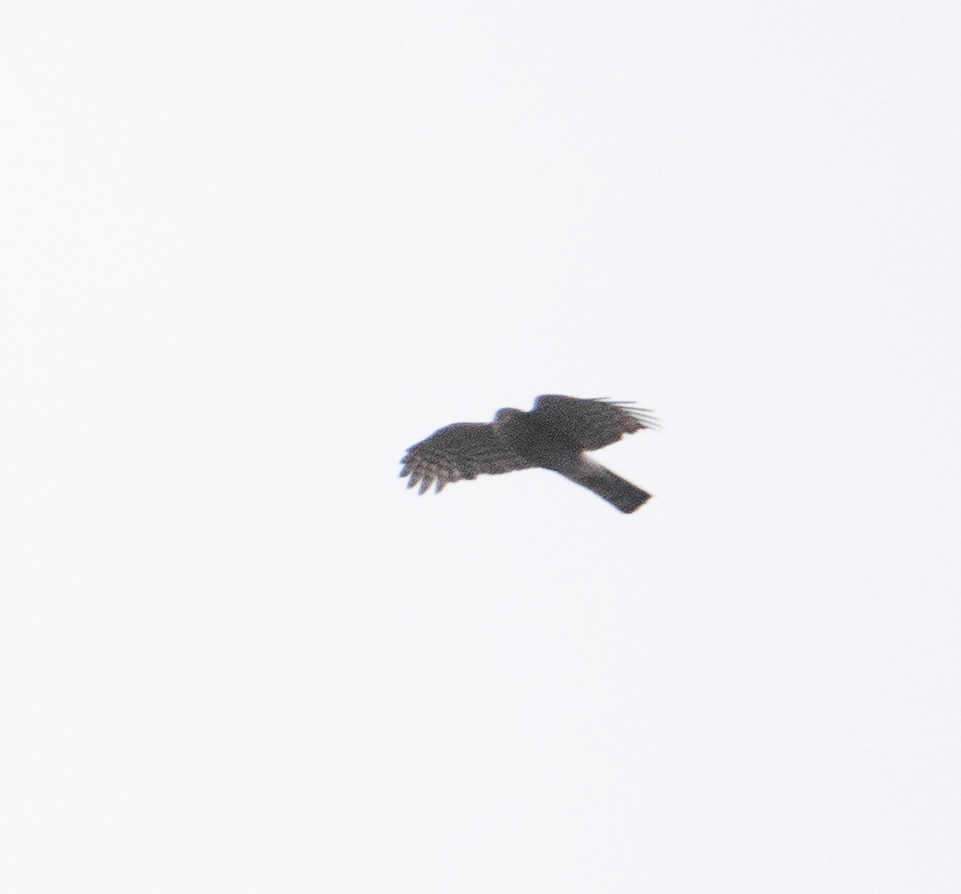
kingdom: Animalia
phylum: Chordata
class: Aves
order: Accipitriformes
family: Accipitridae
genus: Accipiter
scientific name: Accipiter nisus
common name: Eurasian sparrowhawk
